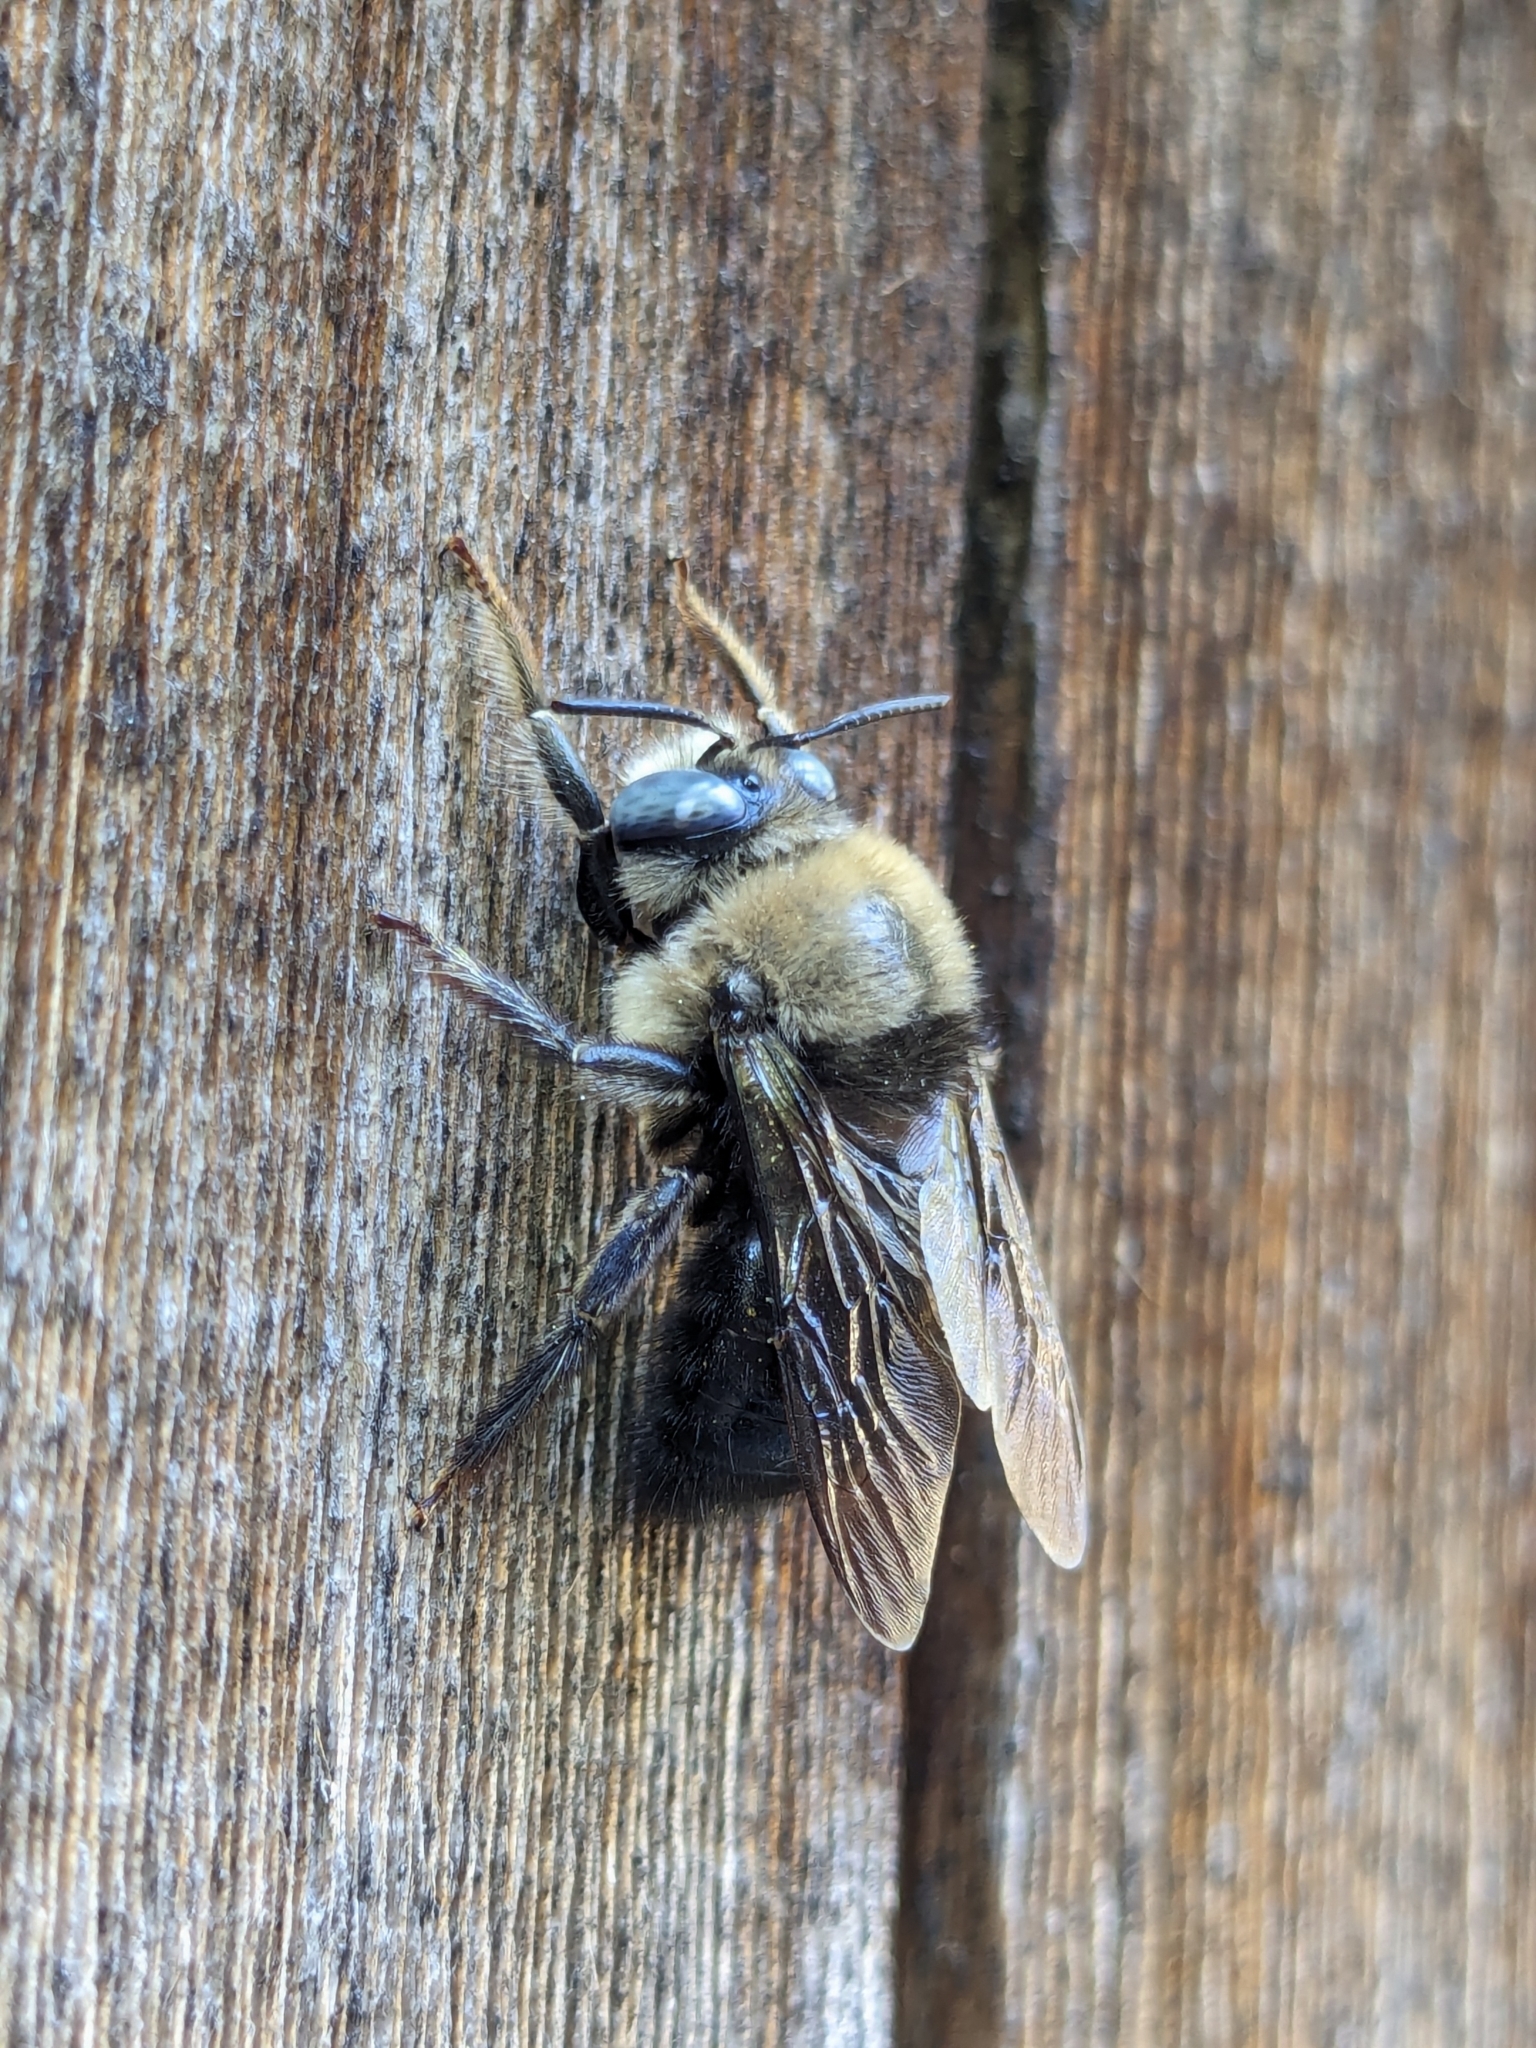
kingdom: Animalia
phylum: Arthropoda
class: Insecta
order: Hymenoptera
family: Apidae
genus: Xylocopa
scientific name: Xylocopa tabaniformis
